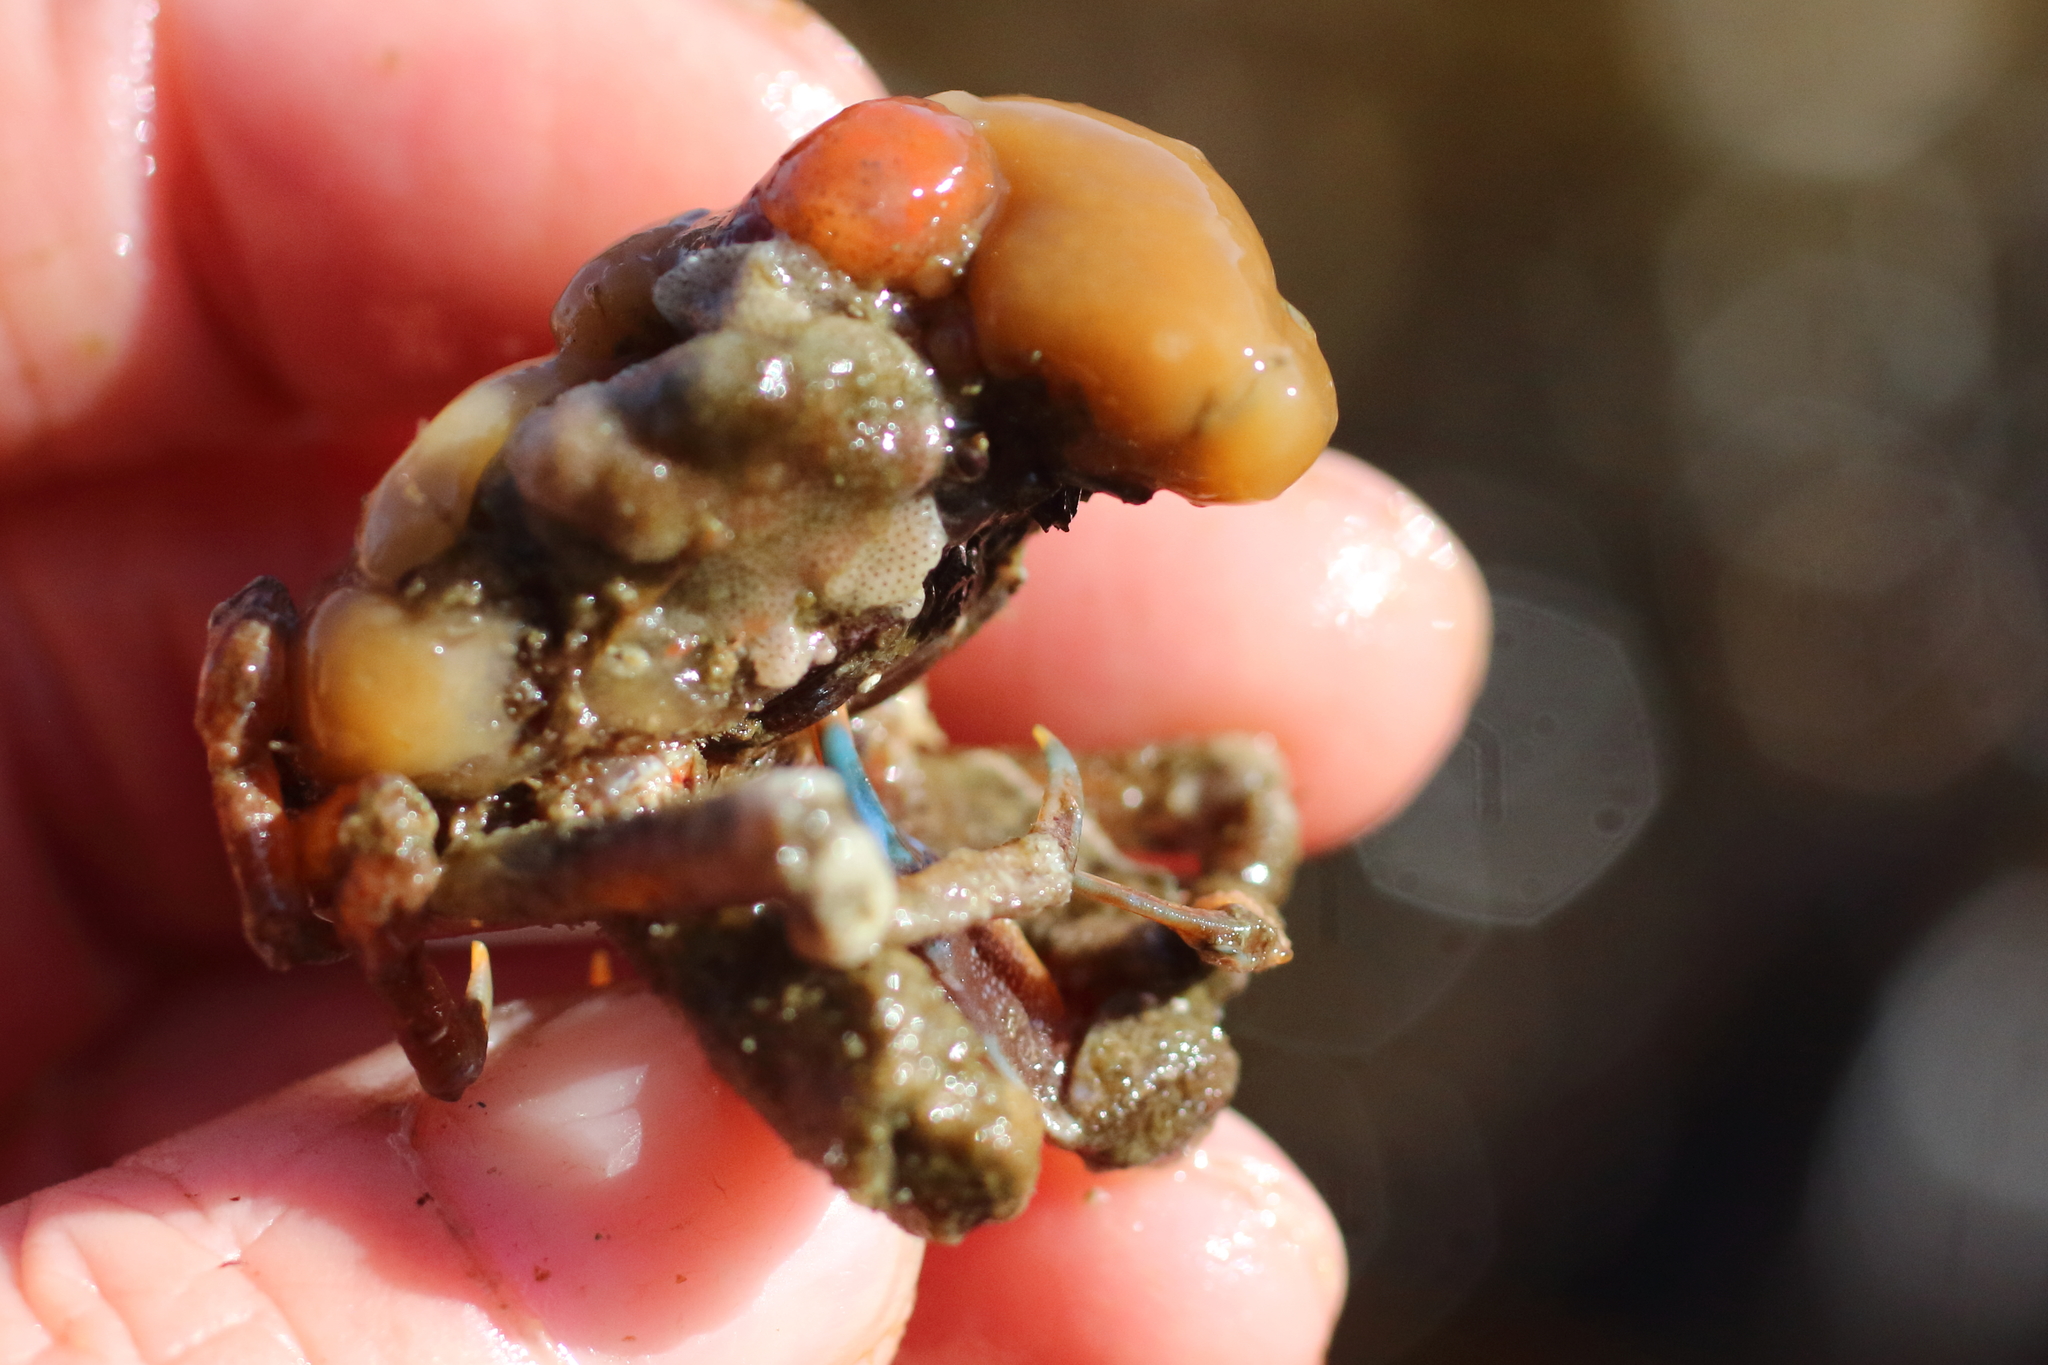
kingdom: Animalia
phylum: Arthropoda
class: Malacostraca
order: Decapoda
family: Epialtidae
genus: Pugettia
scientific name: Pugettia gracilis
